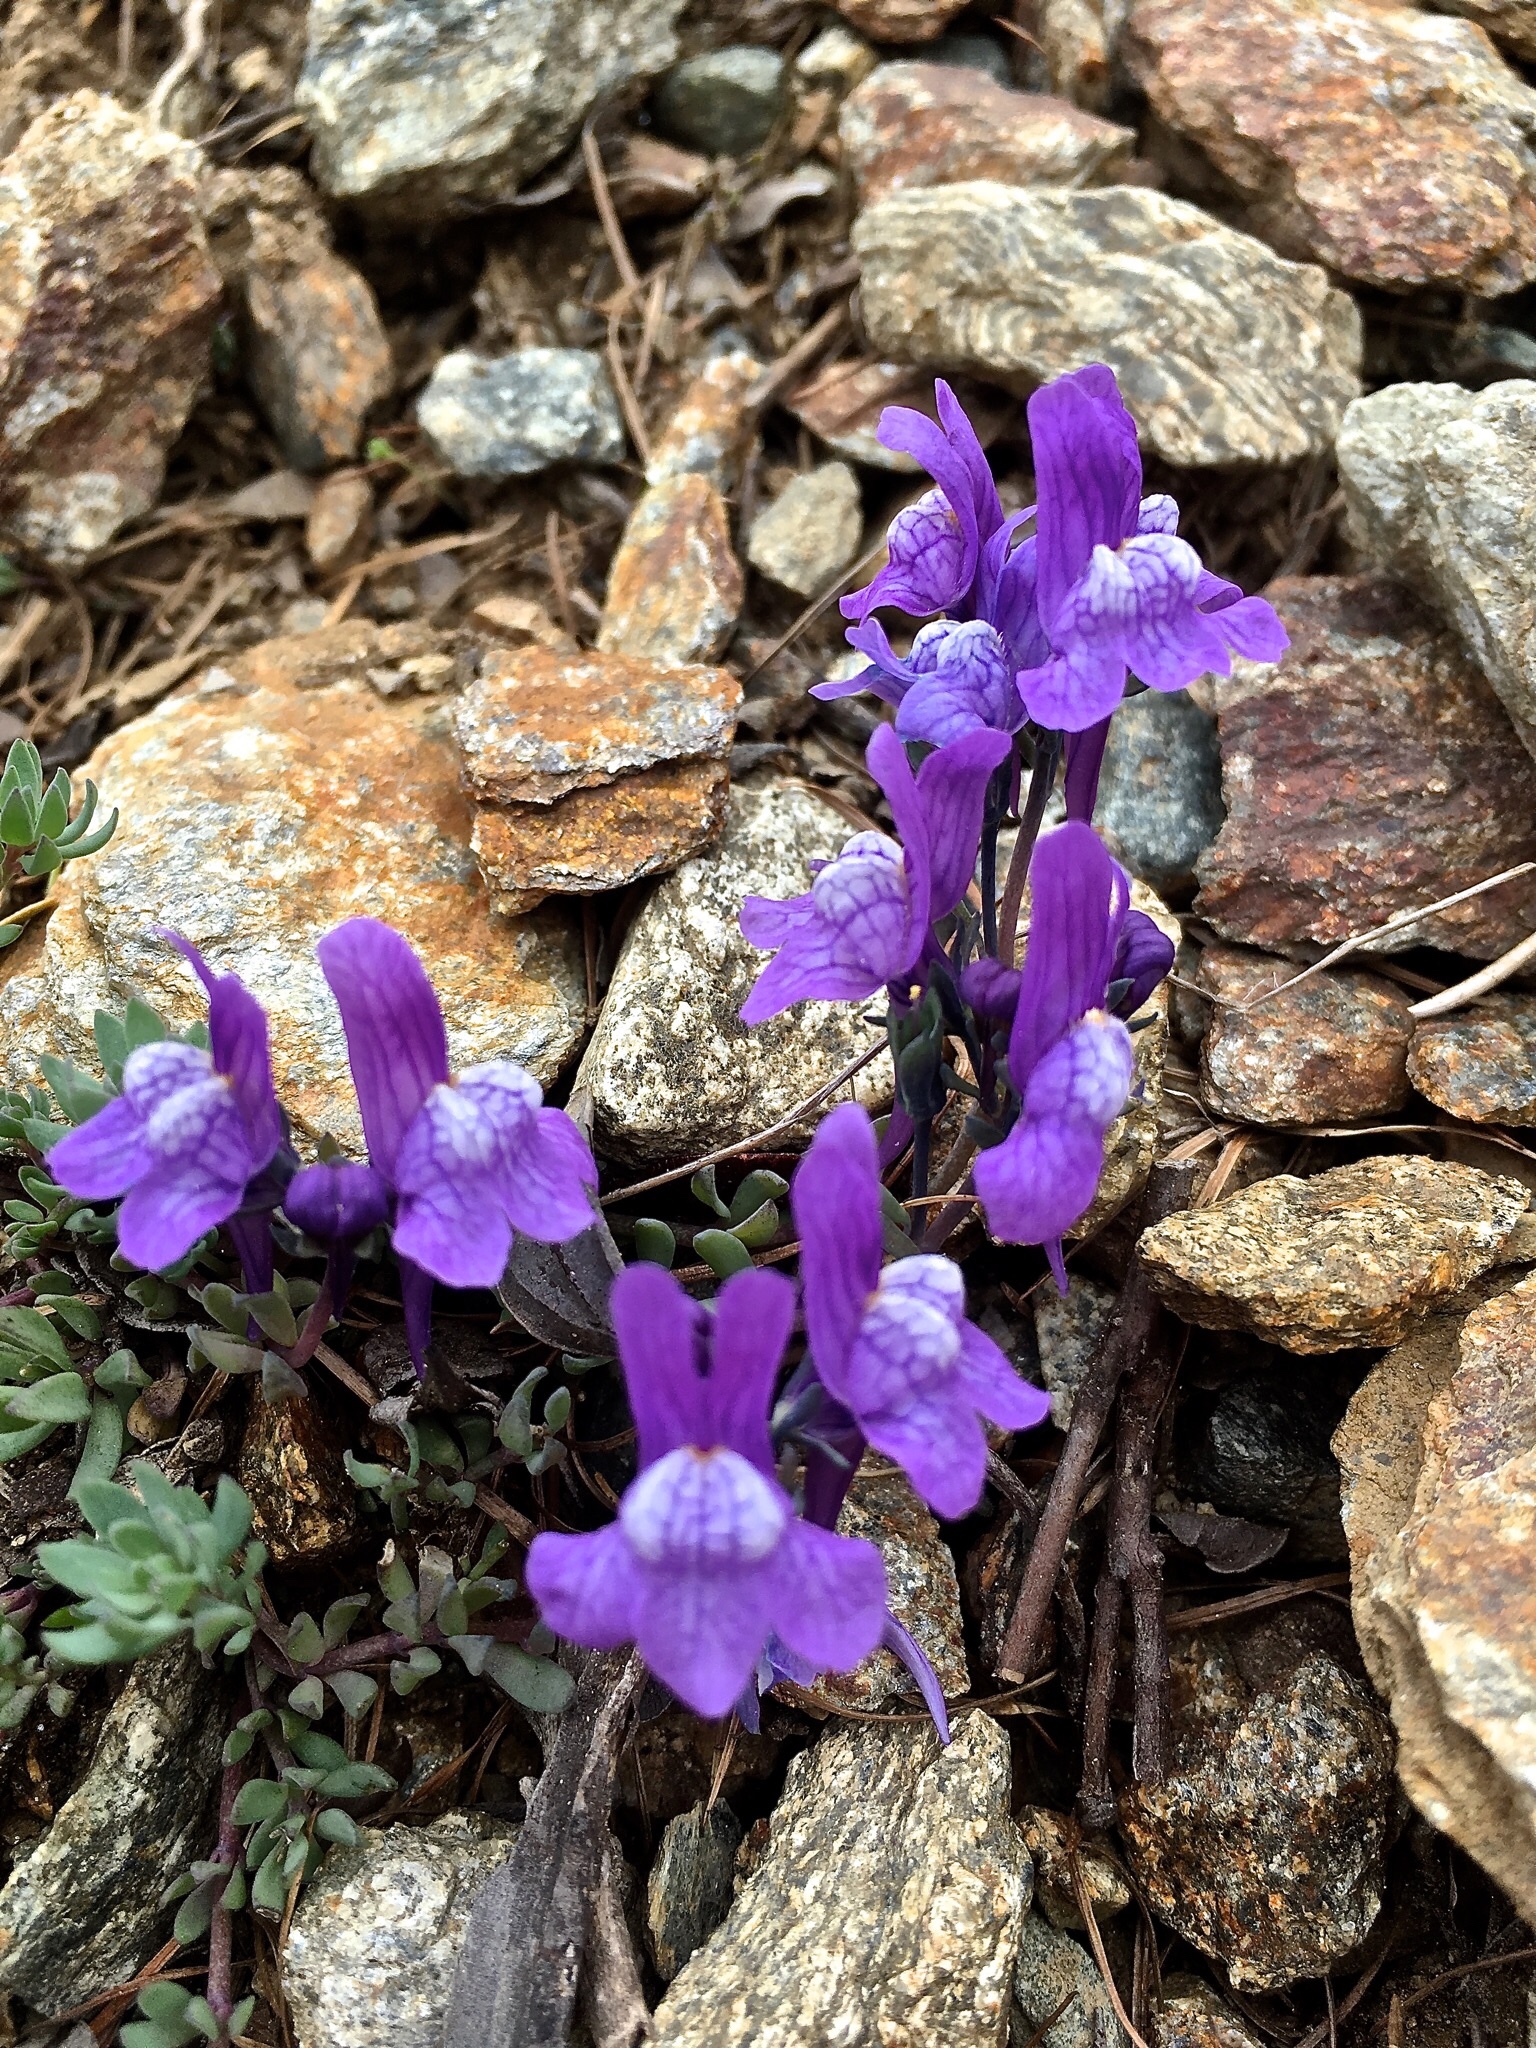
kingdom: Plantae
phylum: Tracheophyta
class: Magnoliopsida
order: Lamiales
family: Plantaginaceae
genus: Linaria
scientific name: Linaria alpina
